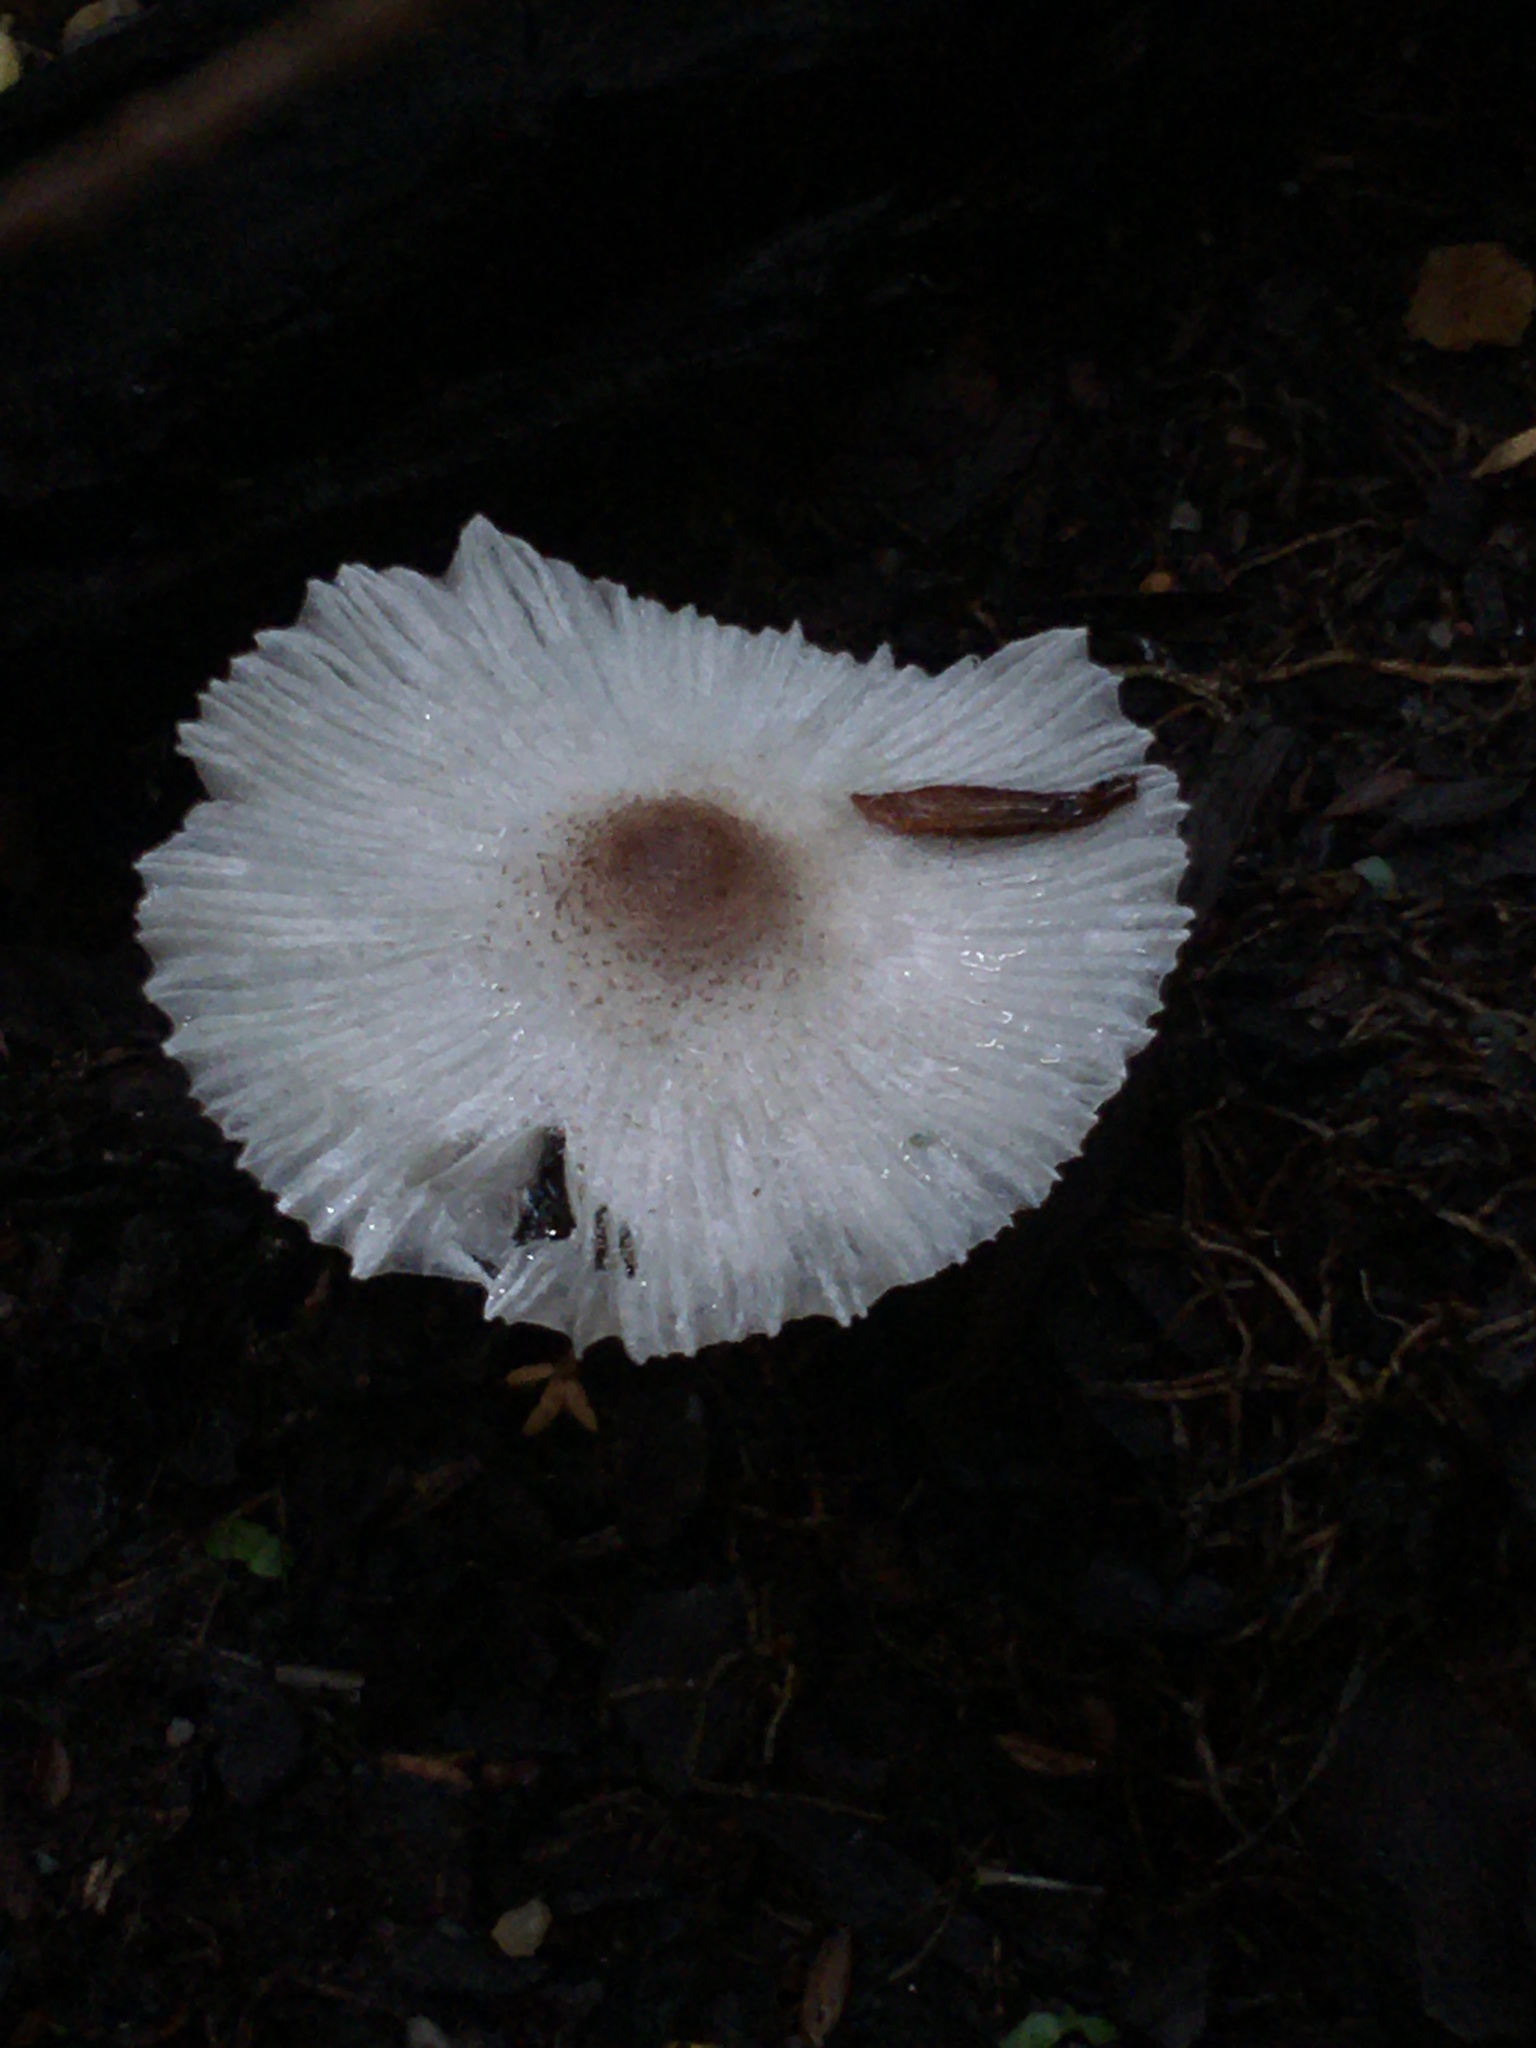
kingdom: Fungi
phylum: Basidiomycota
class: Agaricomycetes
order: Agaricales
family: Agaricaceae
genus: Leucocoprinus
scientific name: Leucocoprinus truncatus
